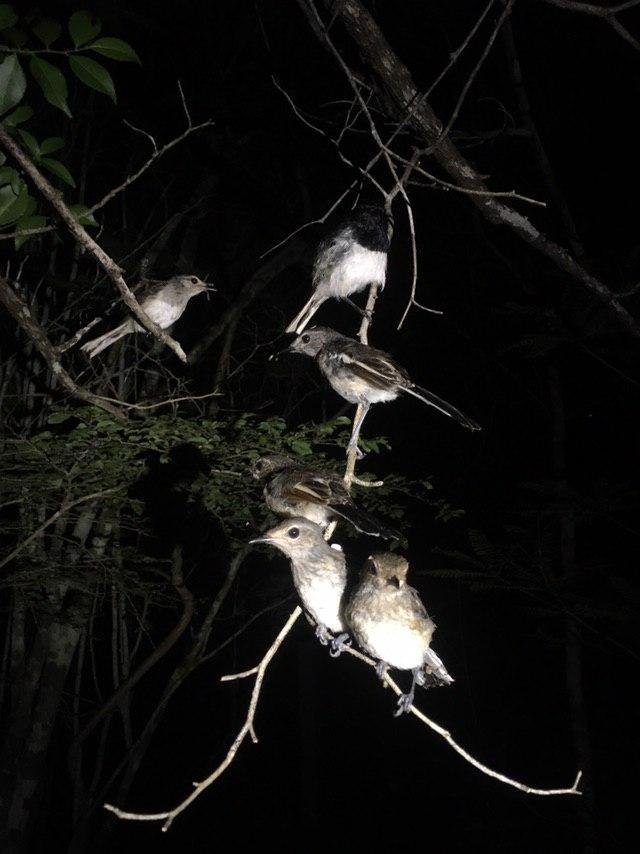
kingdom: Animalia
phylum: Chordata
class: Aves
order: Passeriformes
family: Muscicapidae
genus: Copsychus
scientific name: Copsychus albospecularis
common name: Madagascar magpie-robin
